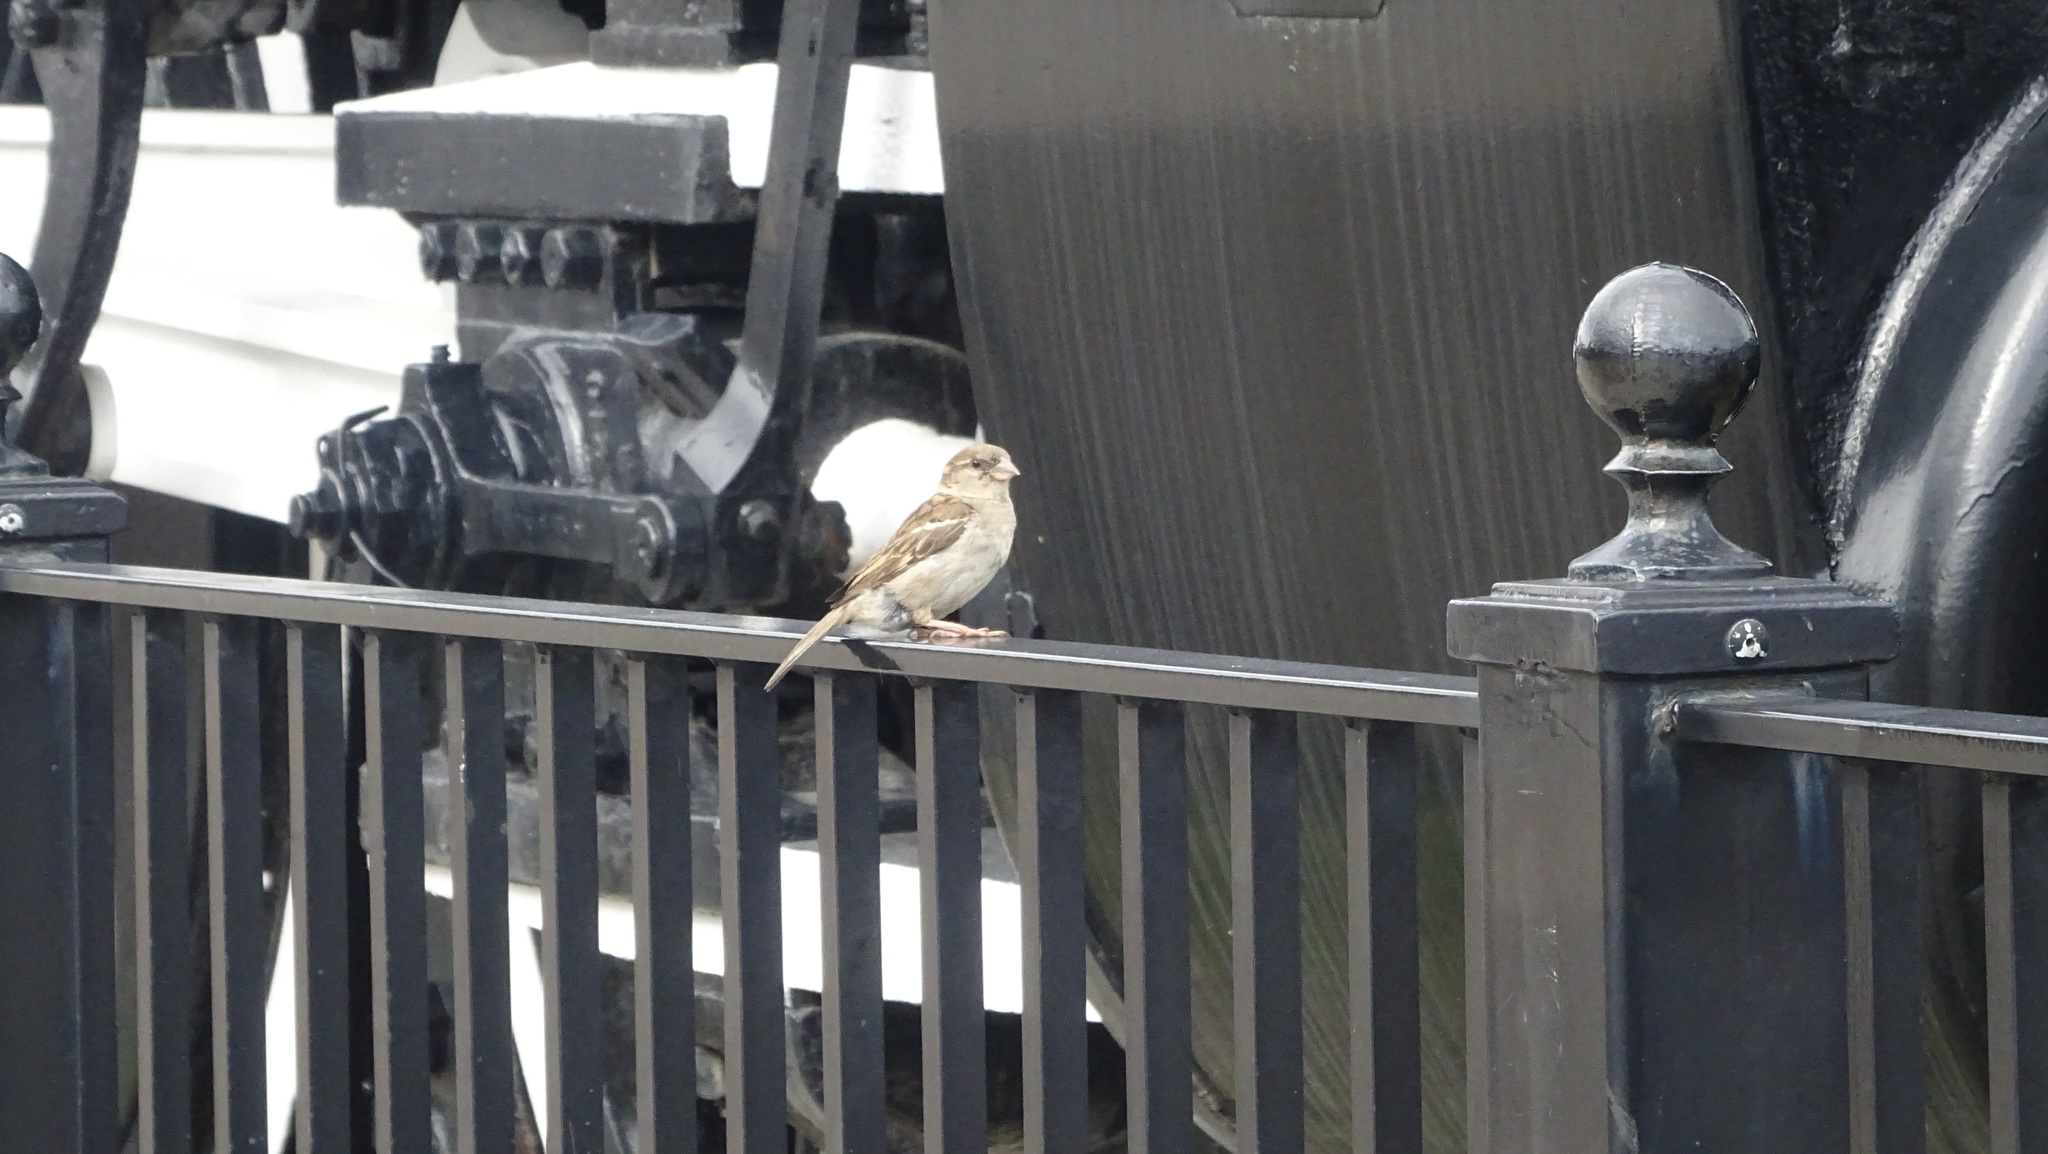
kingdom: Animalia
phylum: Chordata
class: Aves
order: Passeriformes
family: Passeridae
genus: Passer
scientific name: Passer domesticus
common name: House sparrow
